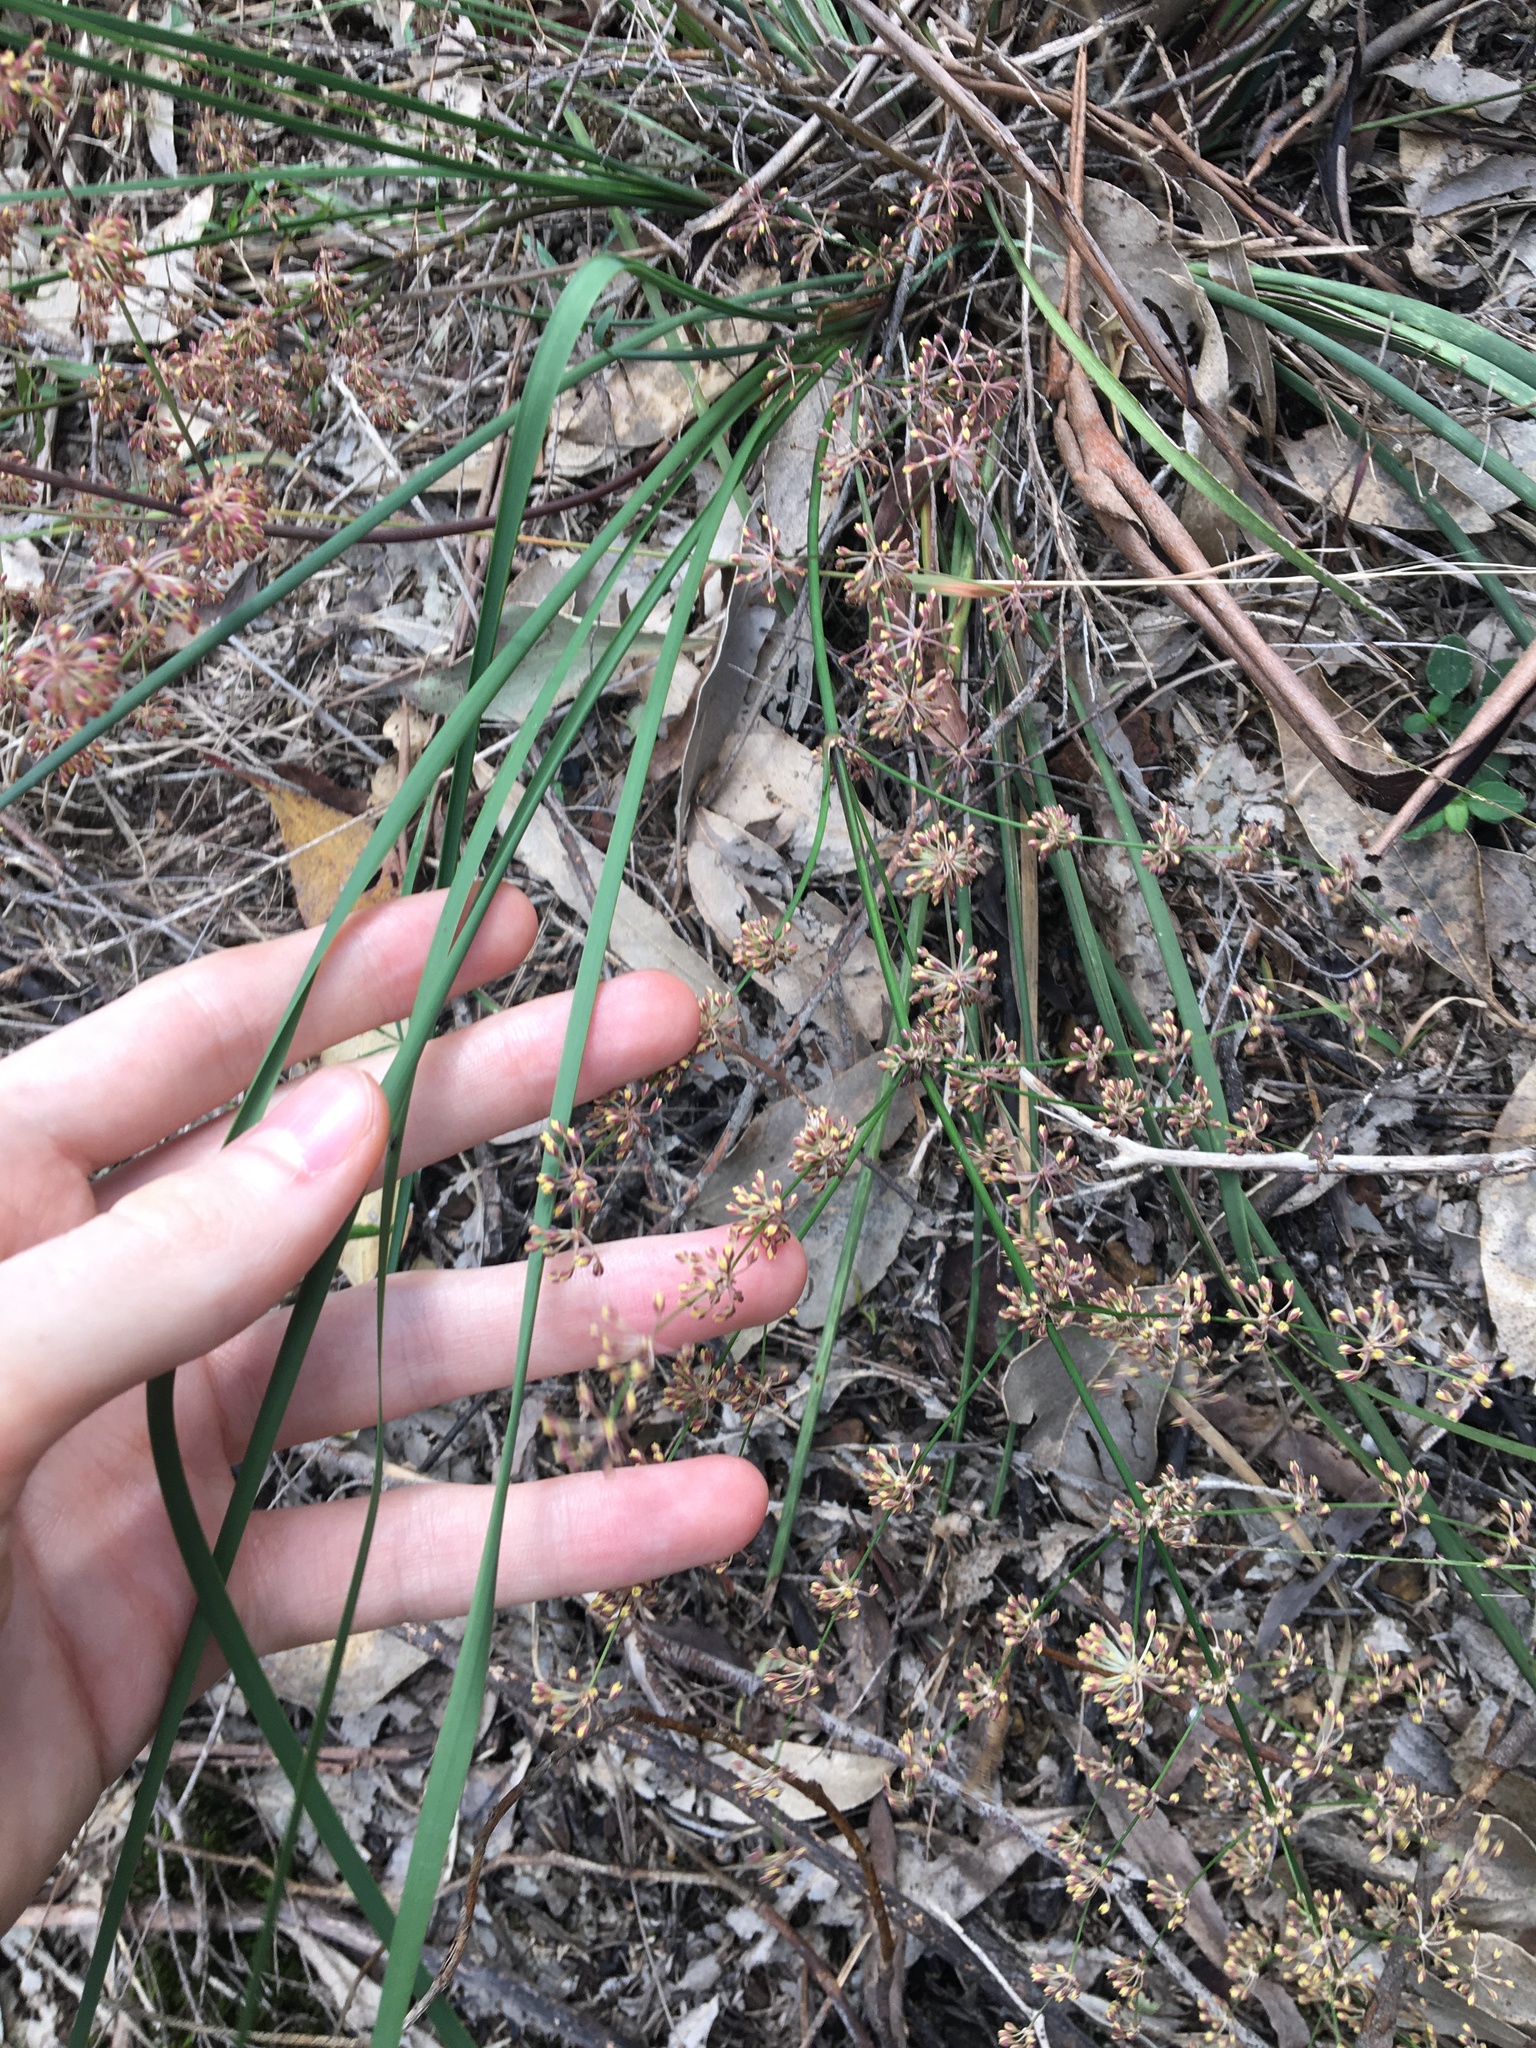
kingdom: Plantae
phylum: Tracheophyta
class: Liliopsida
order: Asparagales
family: Asparagaceae
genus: Lomandra
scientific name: Lomandra multiflora
